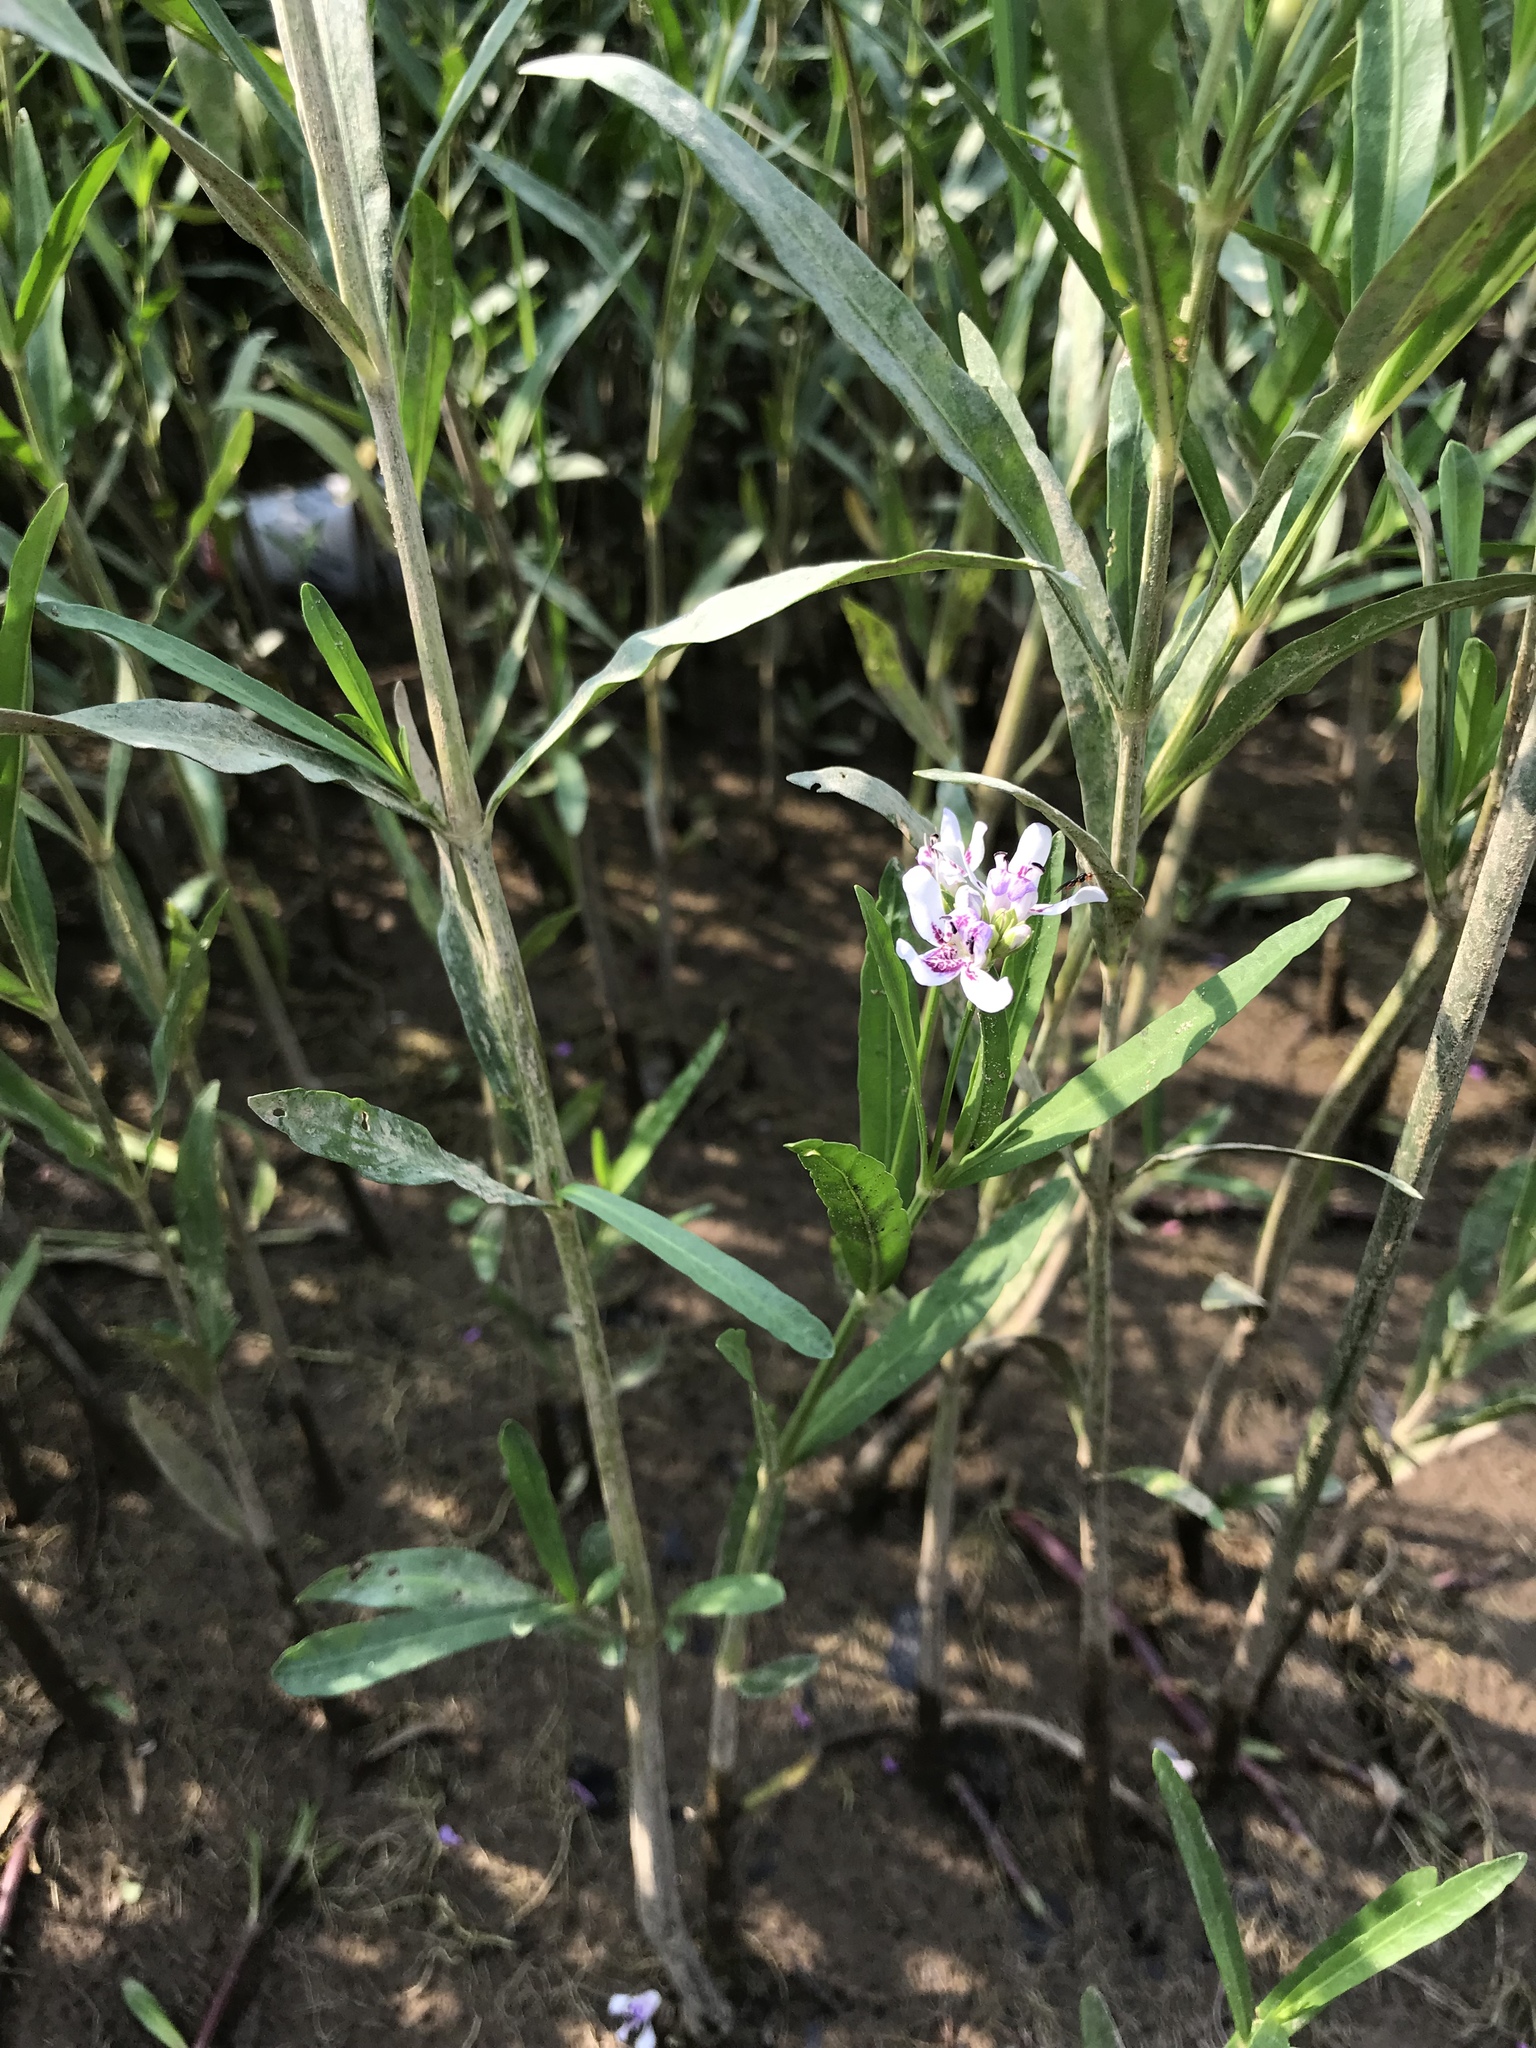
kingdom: Plantae
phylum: Tracheophyta
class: Magnoliopsida
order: Lamiales
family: Acanthaceae
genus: Dianthera
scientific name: Dianthera americana
